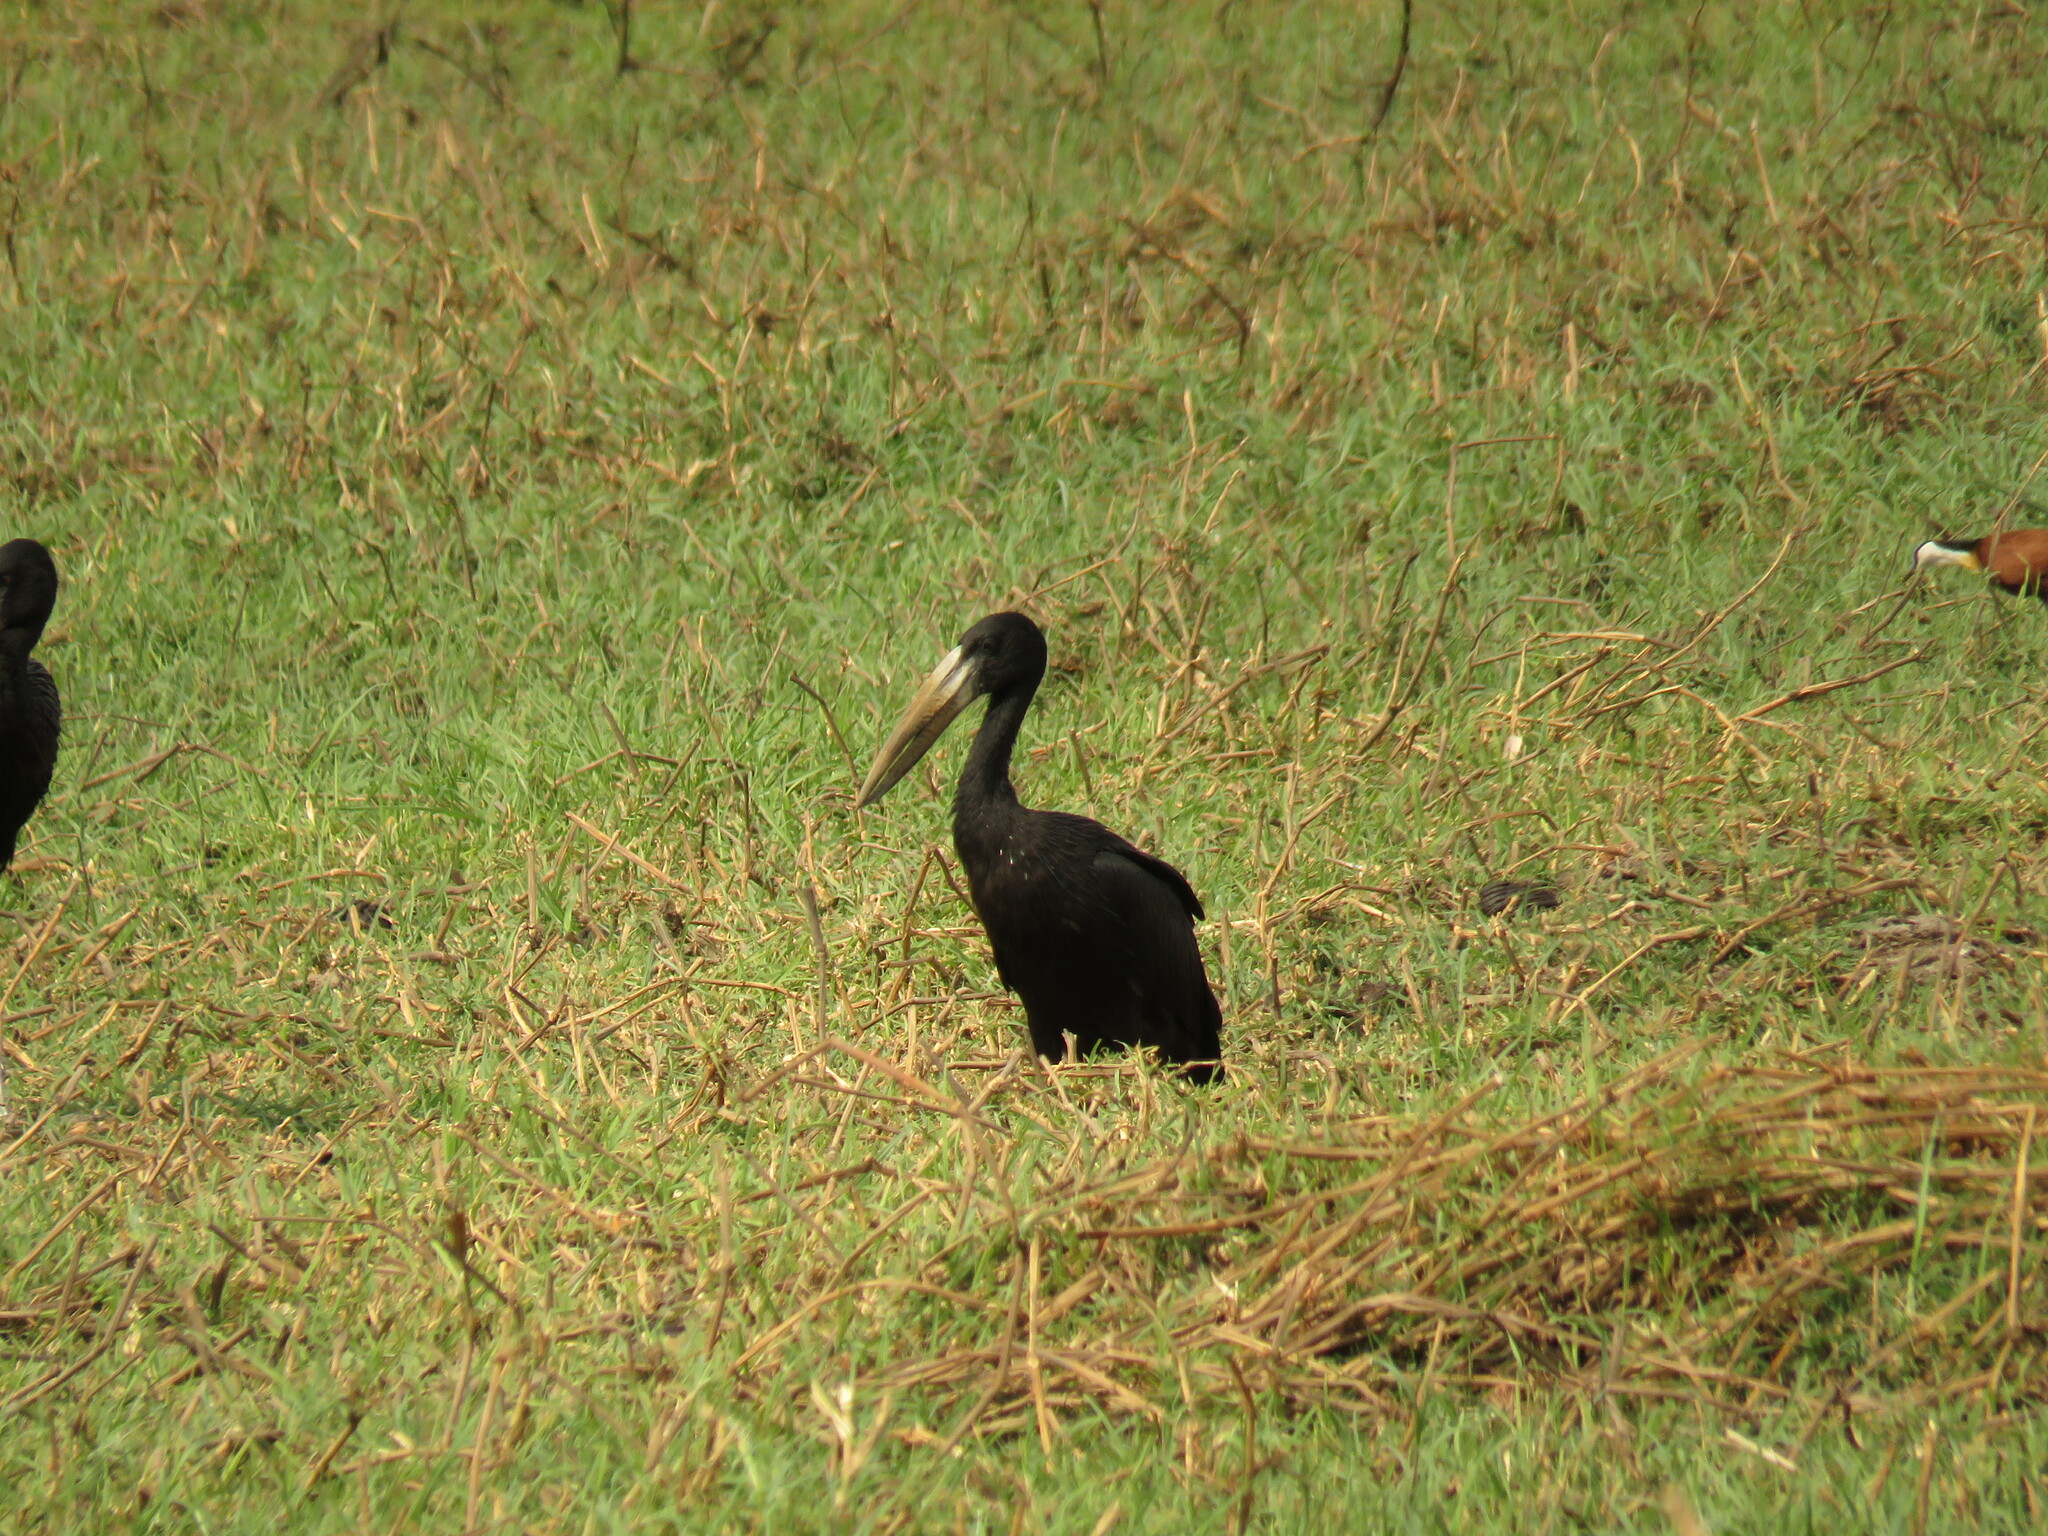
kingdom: Animalia
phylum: Chordata
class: Aves
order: Ciconiiformes
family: Ciconiidae
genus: Anastomus
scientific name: Anastomus lamelligerus
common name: African openbill
